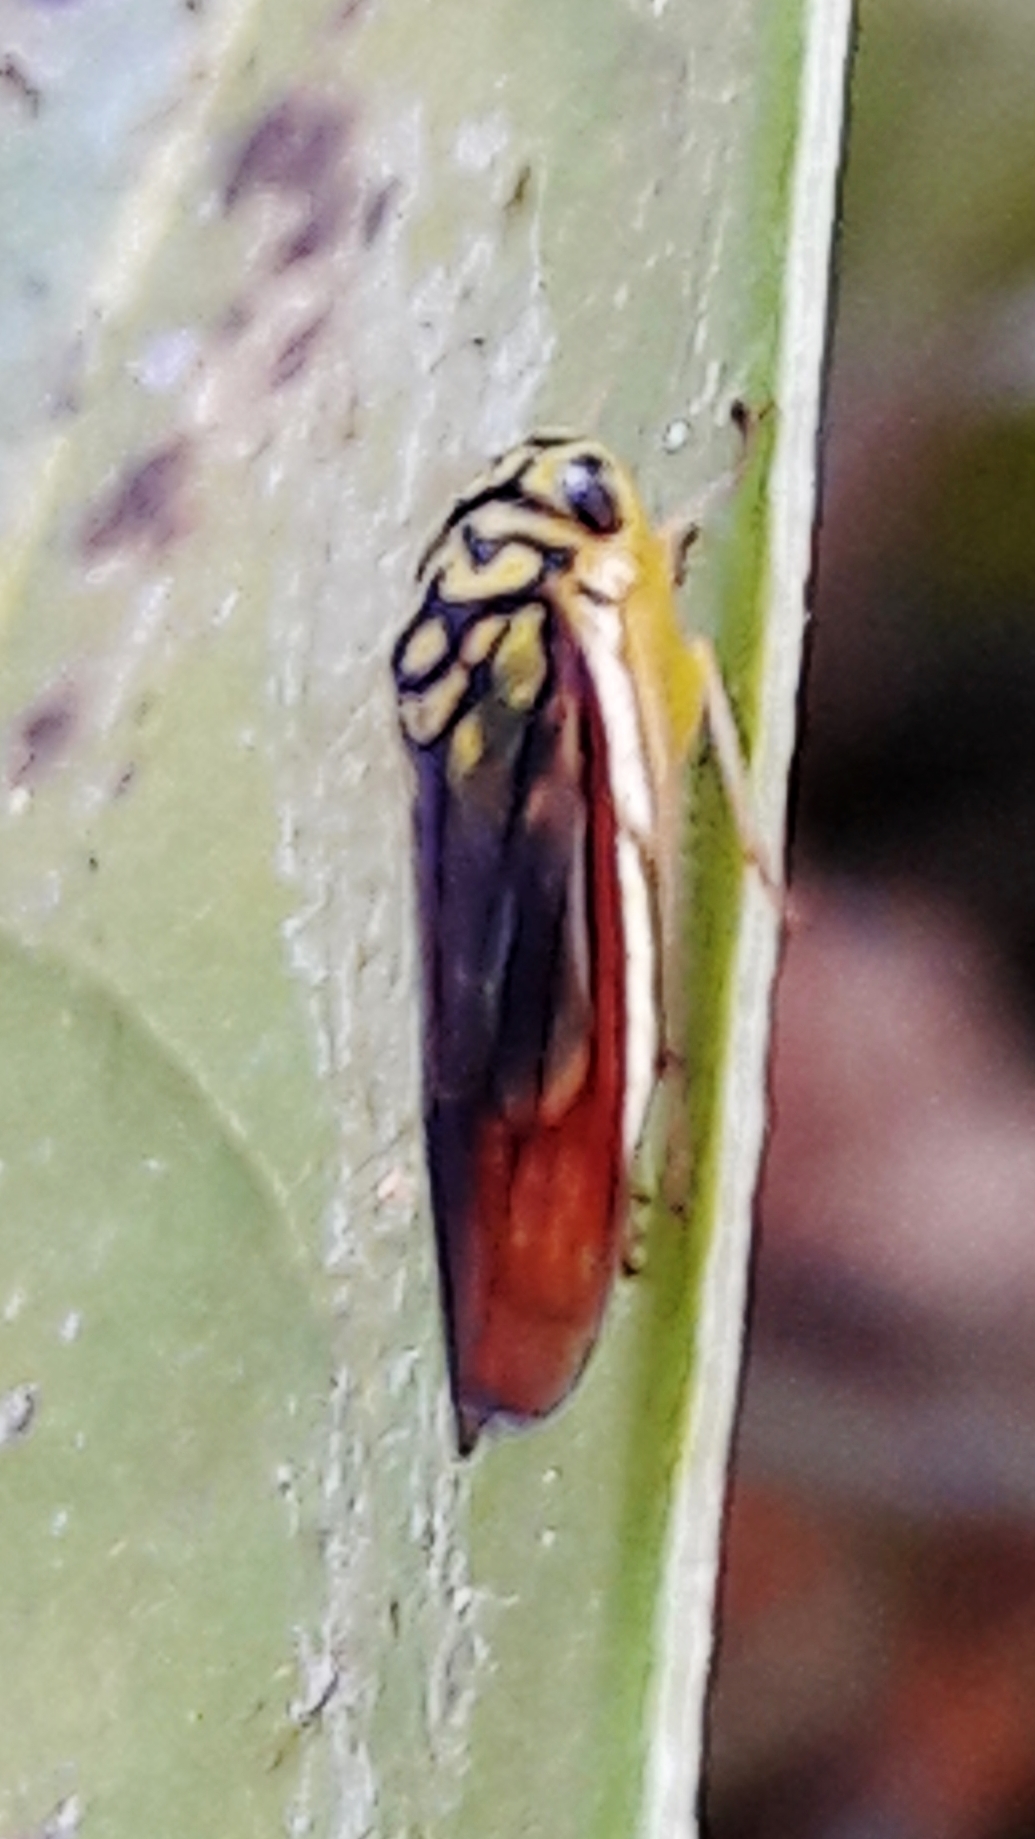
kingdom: Animalia
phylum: Arthropoda
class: Insecta
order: Hemiptera
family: Cicadellidae
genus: Dilobopterus
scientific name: Dilobopterus costalimai
